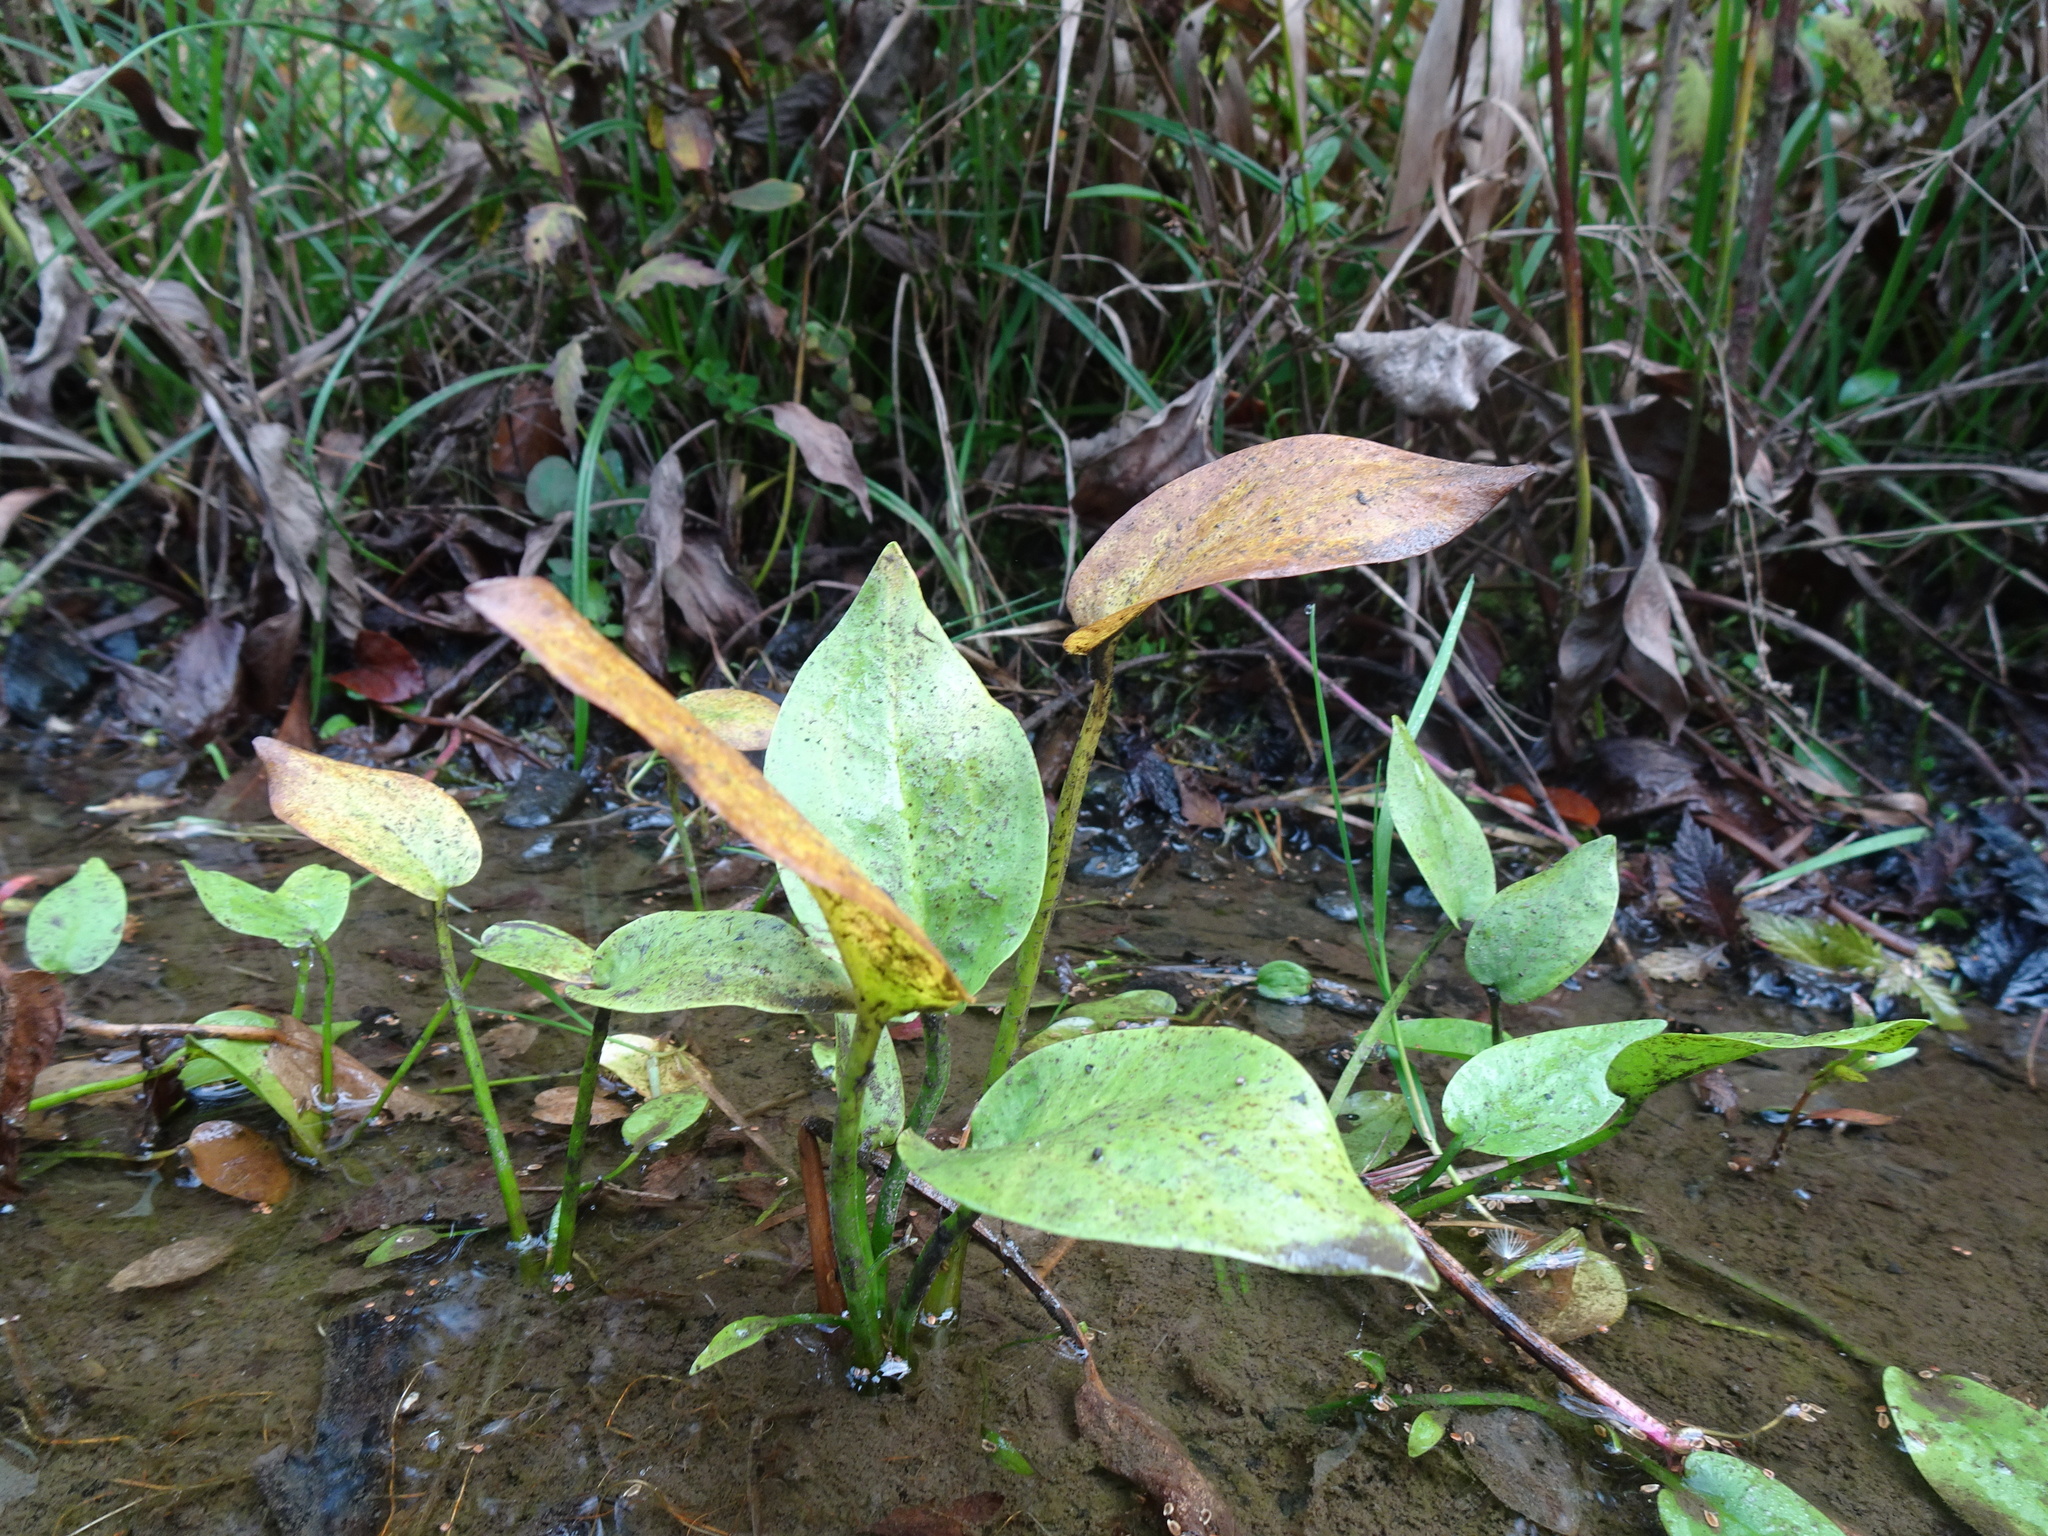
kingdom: Plantae
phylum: Tracheophyta
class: Liliopsida
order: Alismatales
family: Alismataceae
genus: Alisma
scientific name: Alisma plantago-aquatica
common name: Water-plantain
